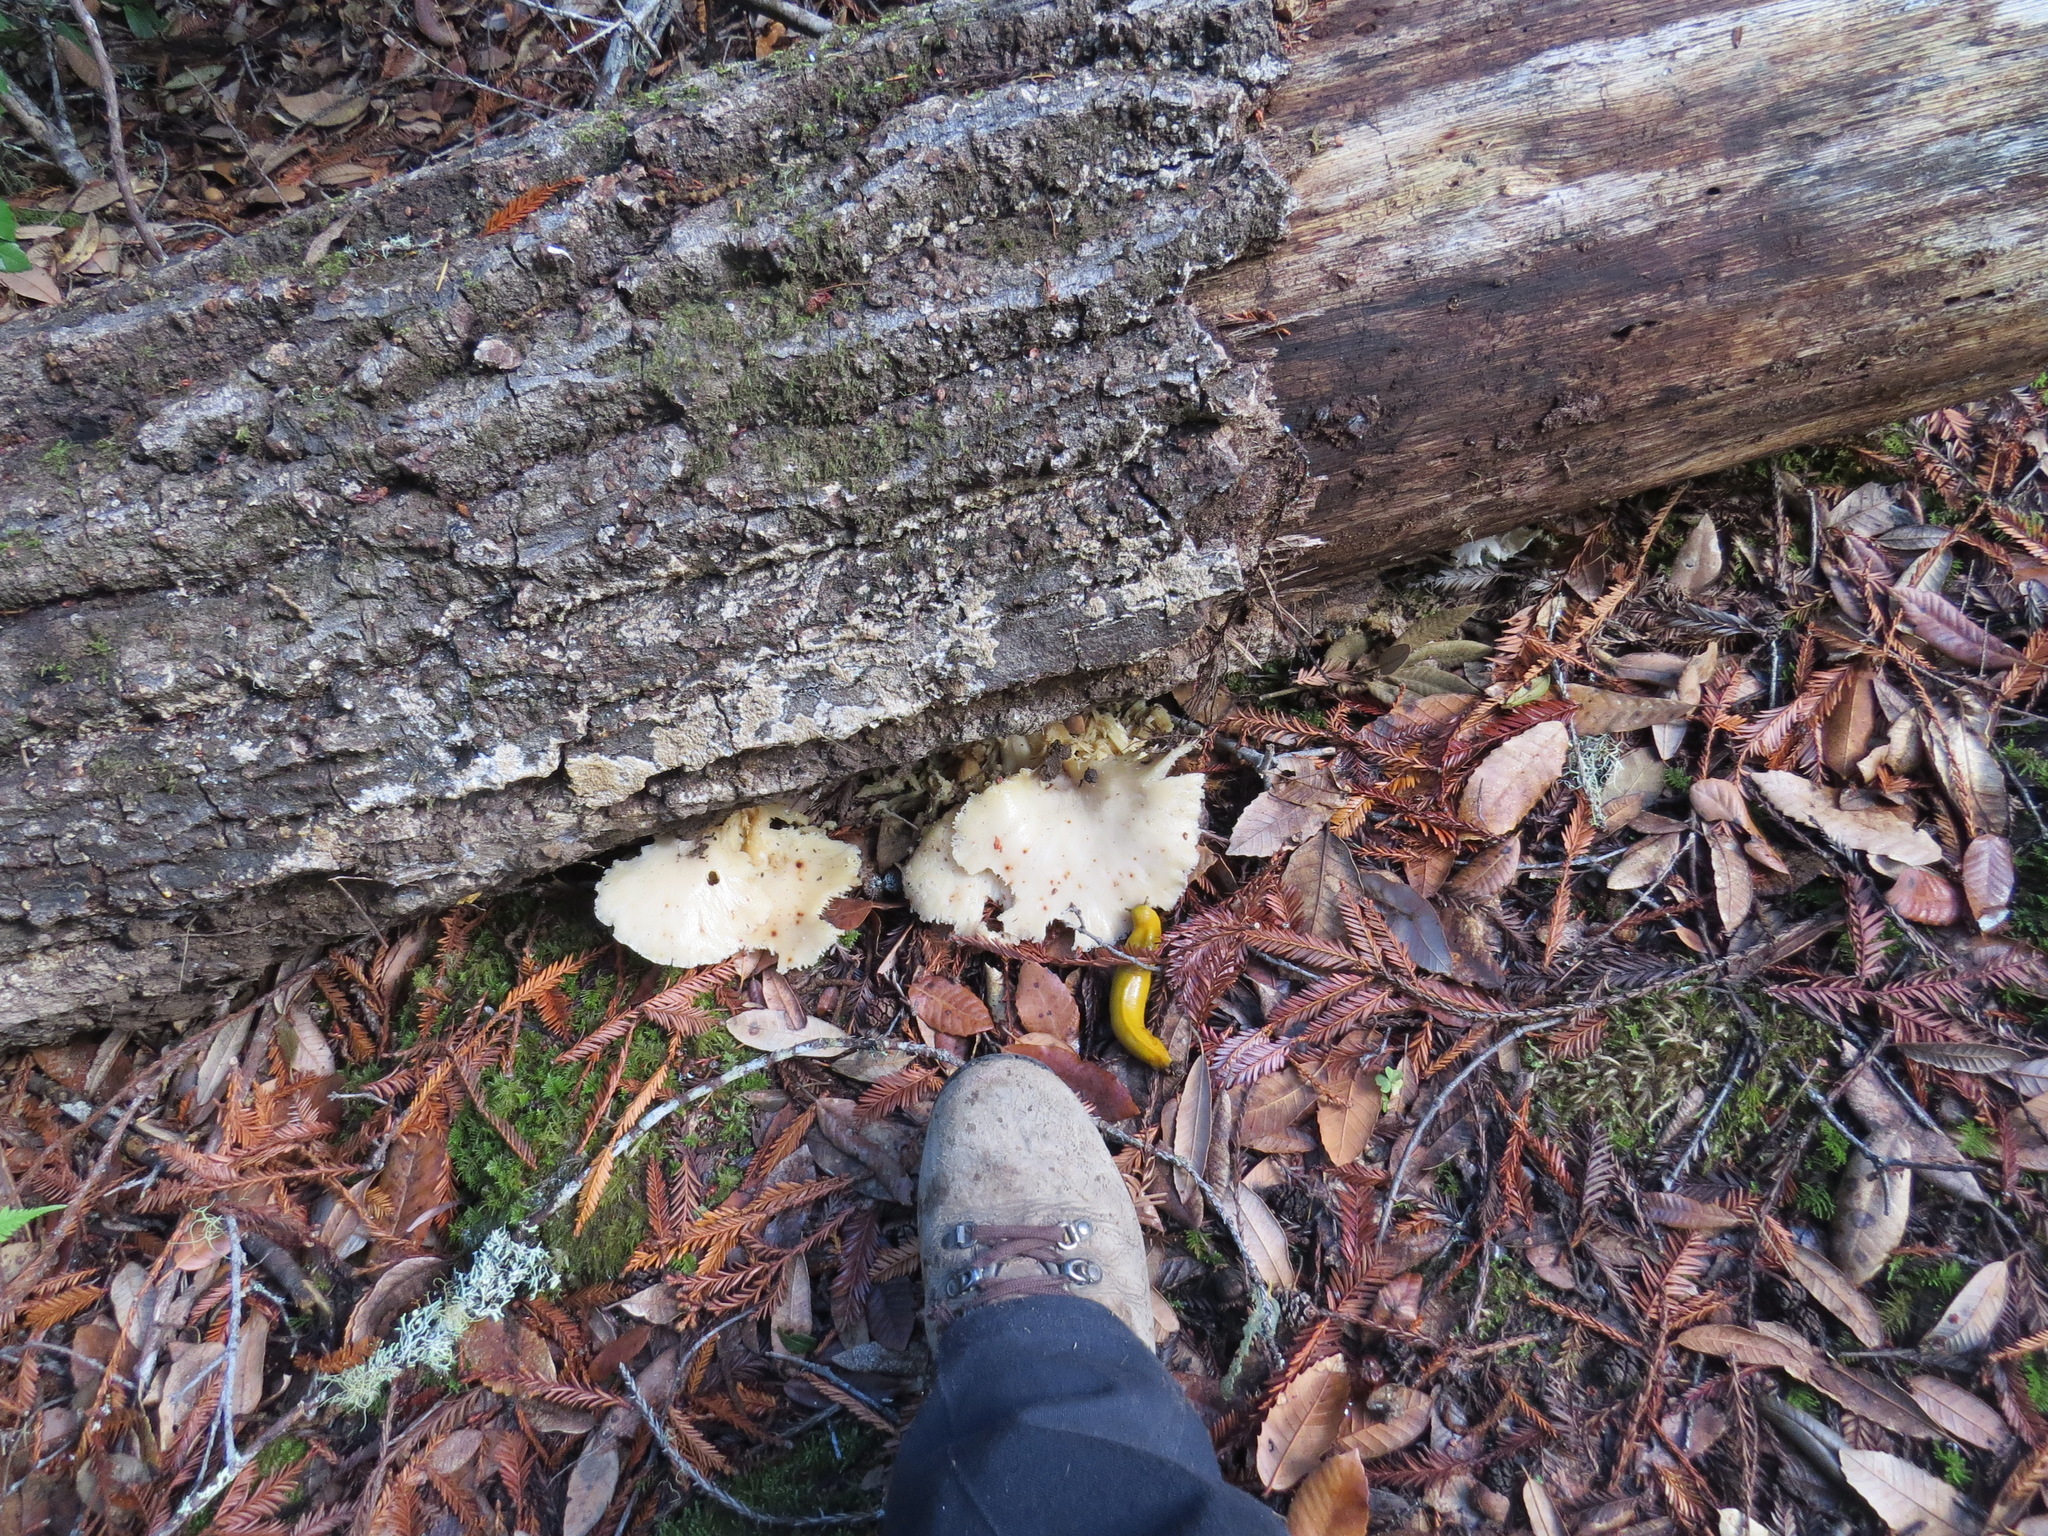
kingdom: Animalia
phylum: Mollusca
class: Gastropoda
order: Stylommatophora
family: Ariolimacidae
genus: Ariolimax
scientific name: Ariolimax californicus
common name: California banana slug
